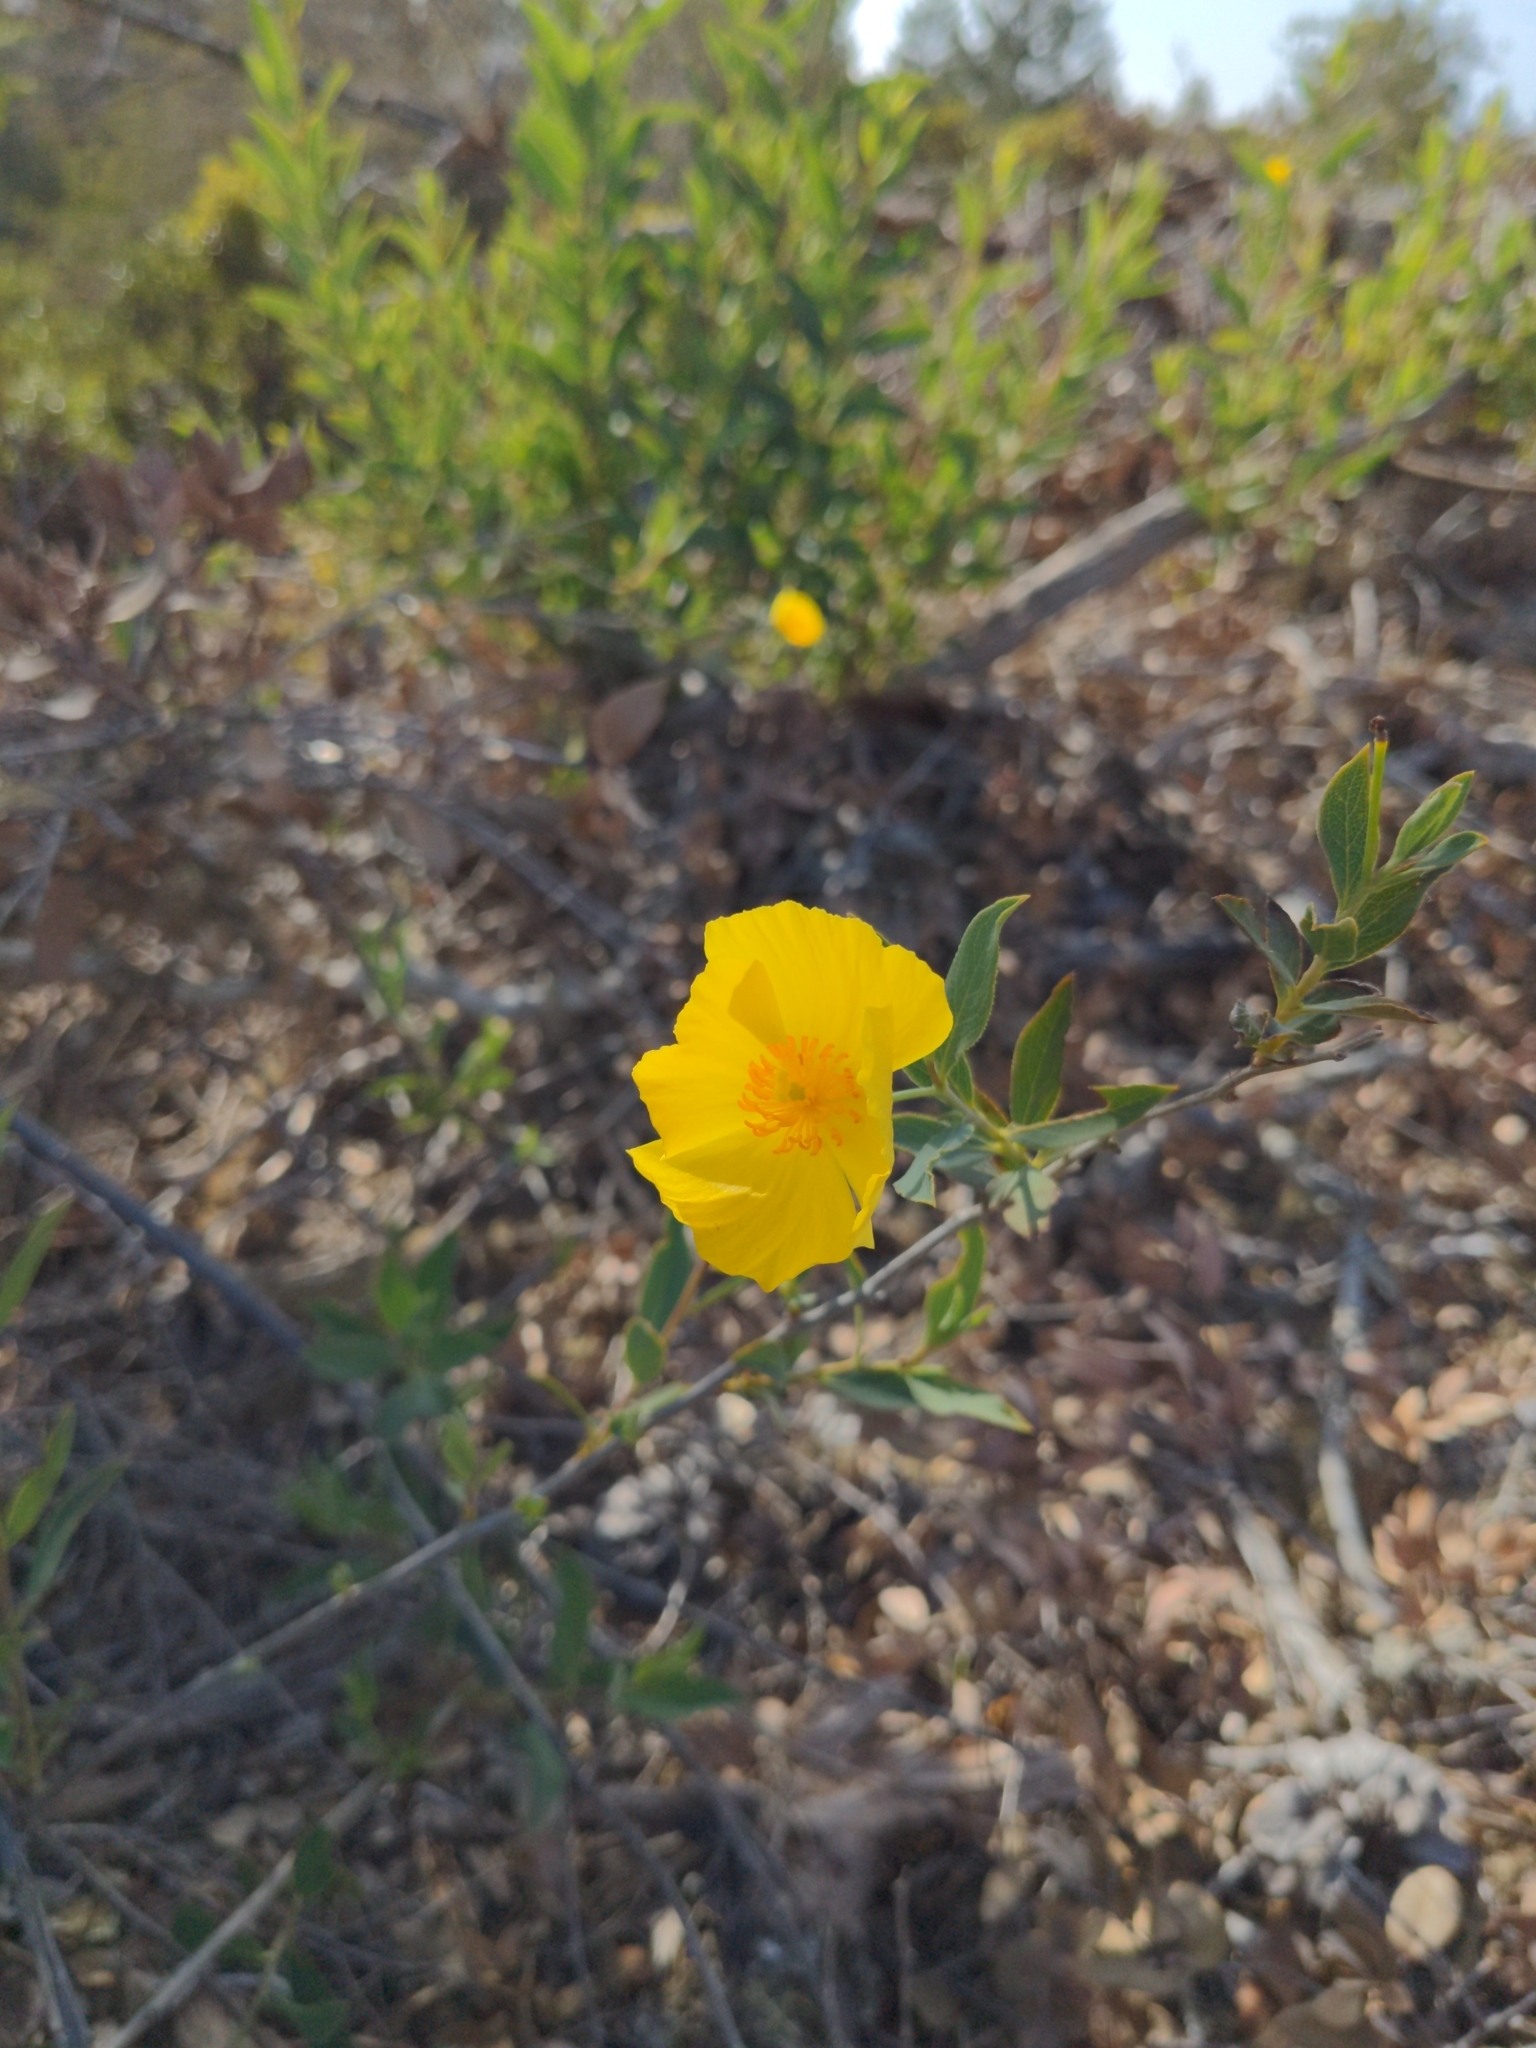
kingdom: Plantae
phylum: Tracheophyta
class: Magnoliopsida
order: Ranunculales
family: Papaveraceae
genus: Dendromecon
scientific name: Dendromecon rigida
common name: Tree poppy
